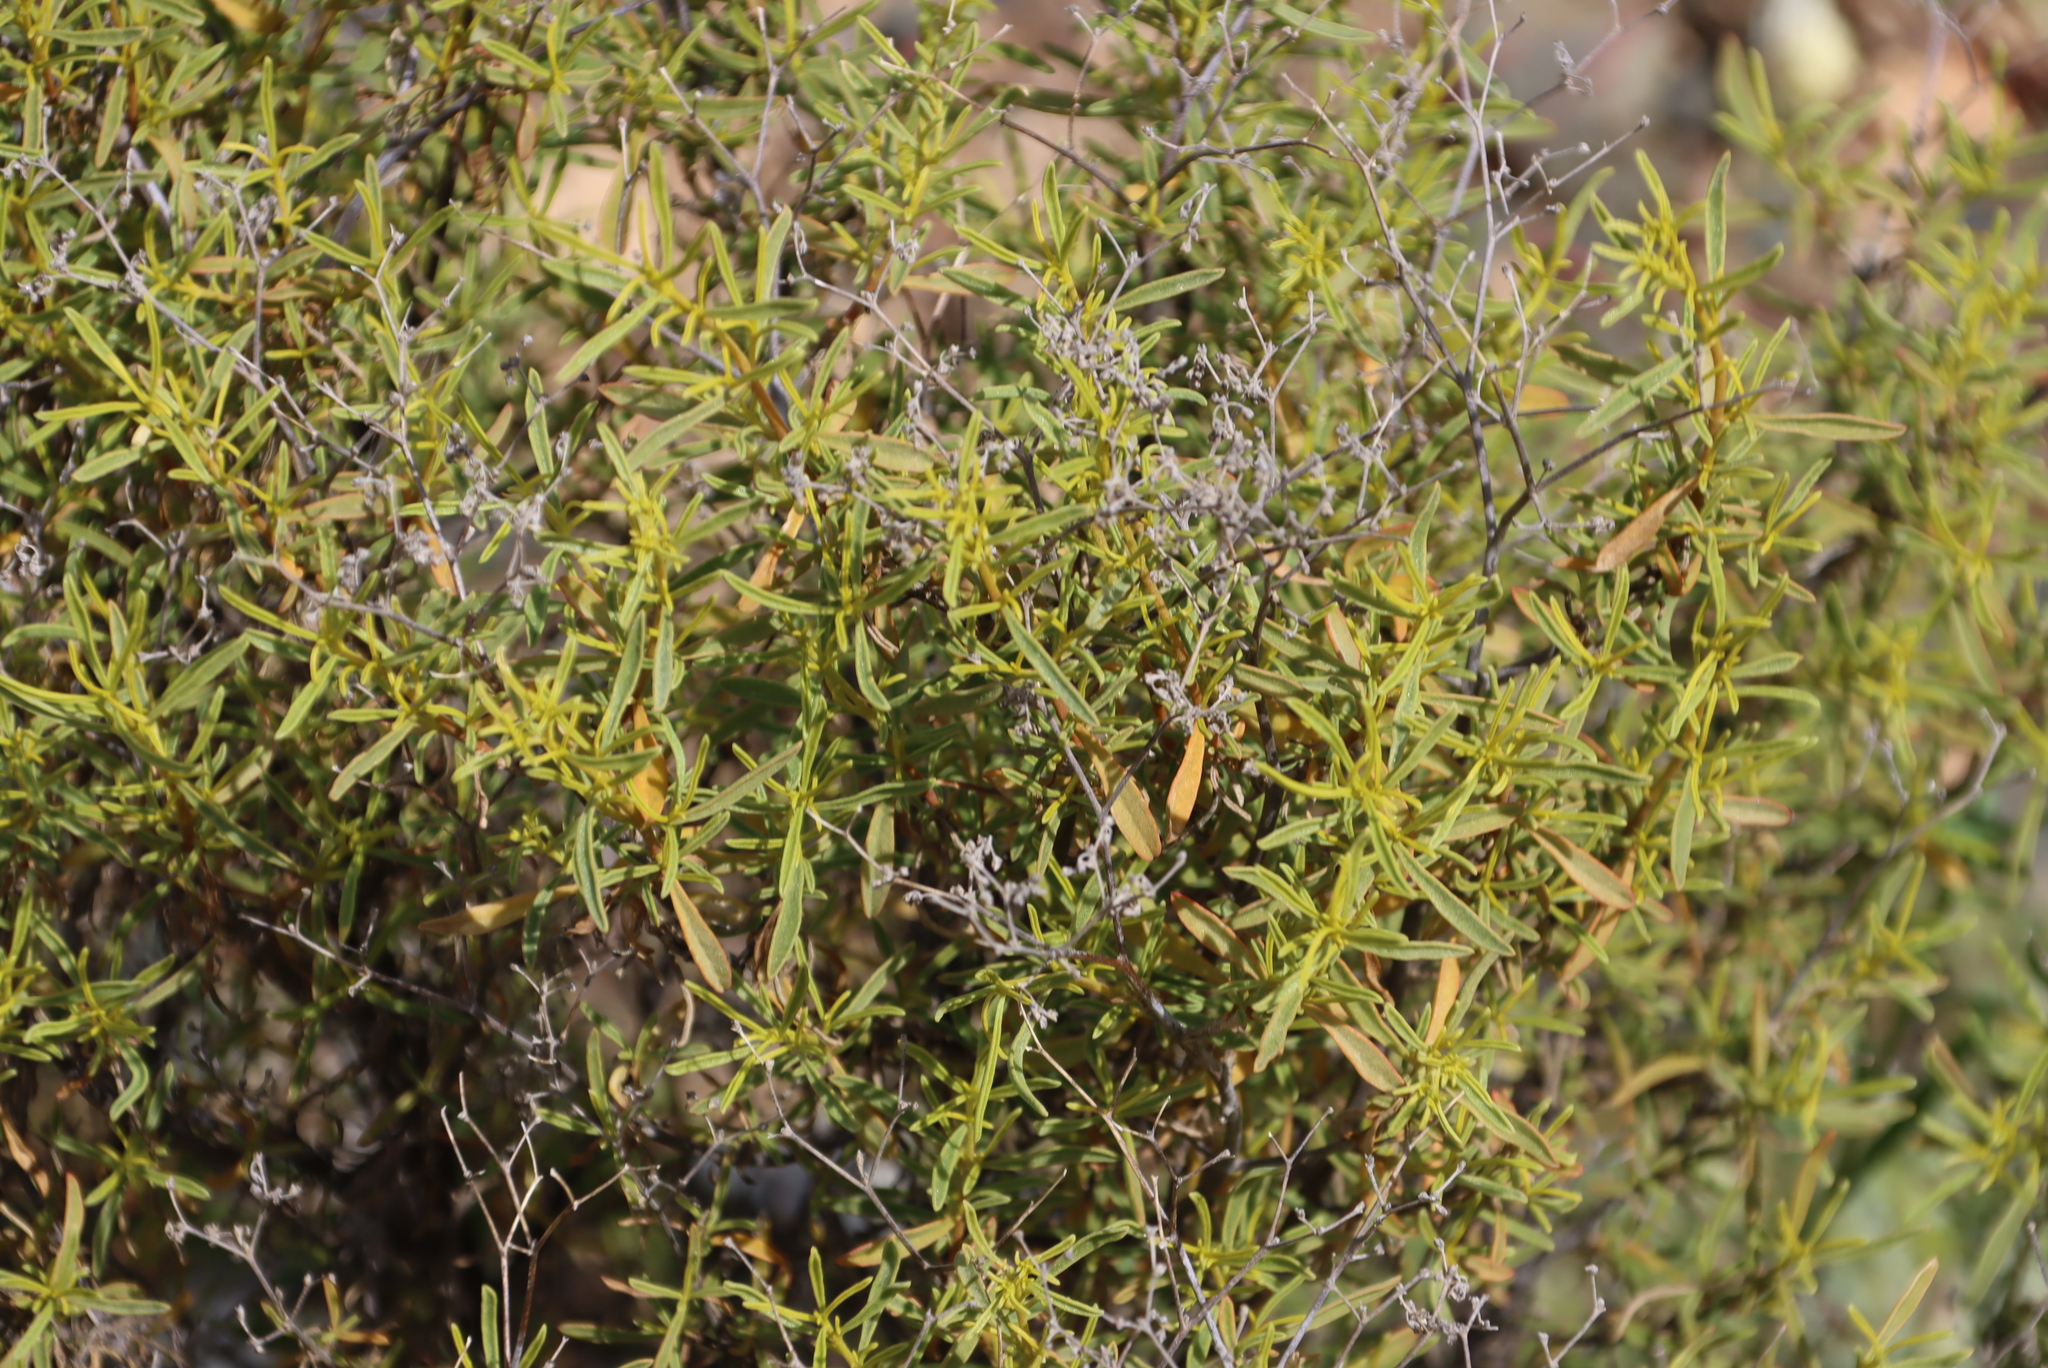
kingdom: Plantae
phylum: Tracheophyta
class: Magnoliopsida
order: Caryophyllales
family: Aizoaceae
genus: Aizoon
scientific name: Aizoon africanum
